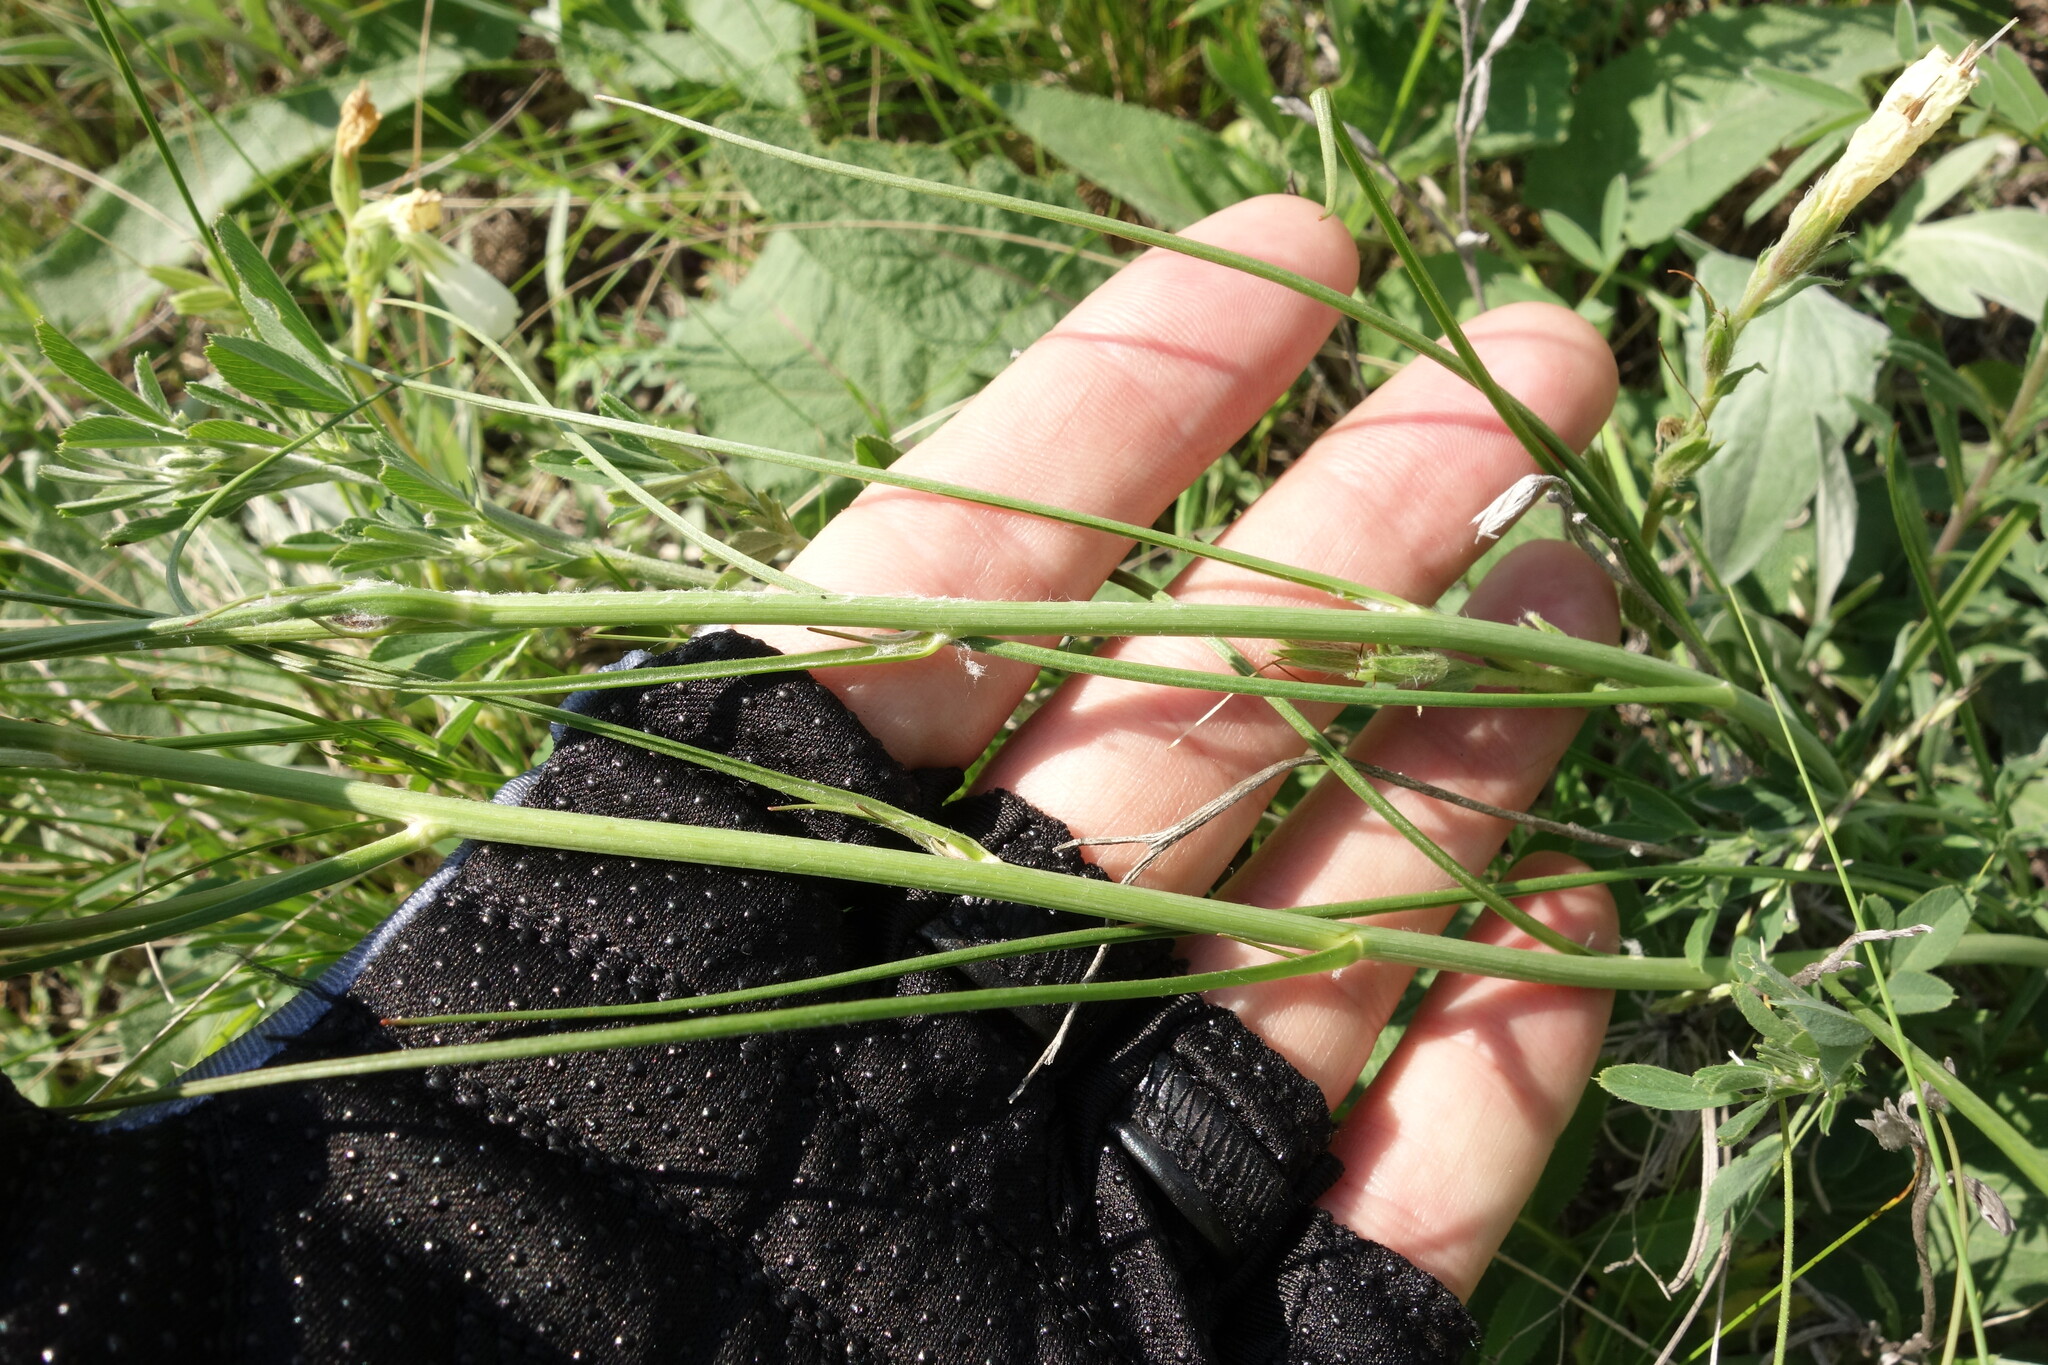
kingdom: Plantae
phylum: Tracheophyta
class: Magnoliopsida
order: Asterales
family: Asteraceae
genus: Scorzonera
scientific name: Scorzonera purpurea
